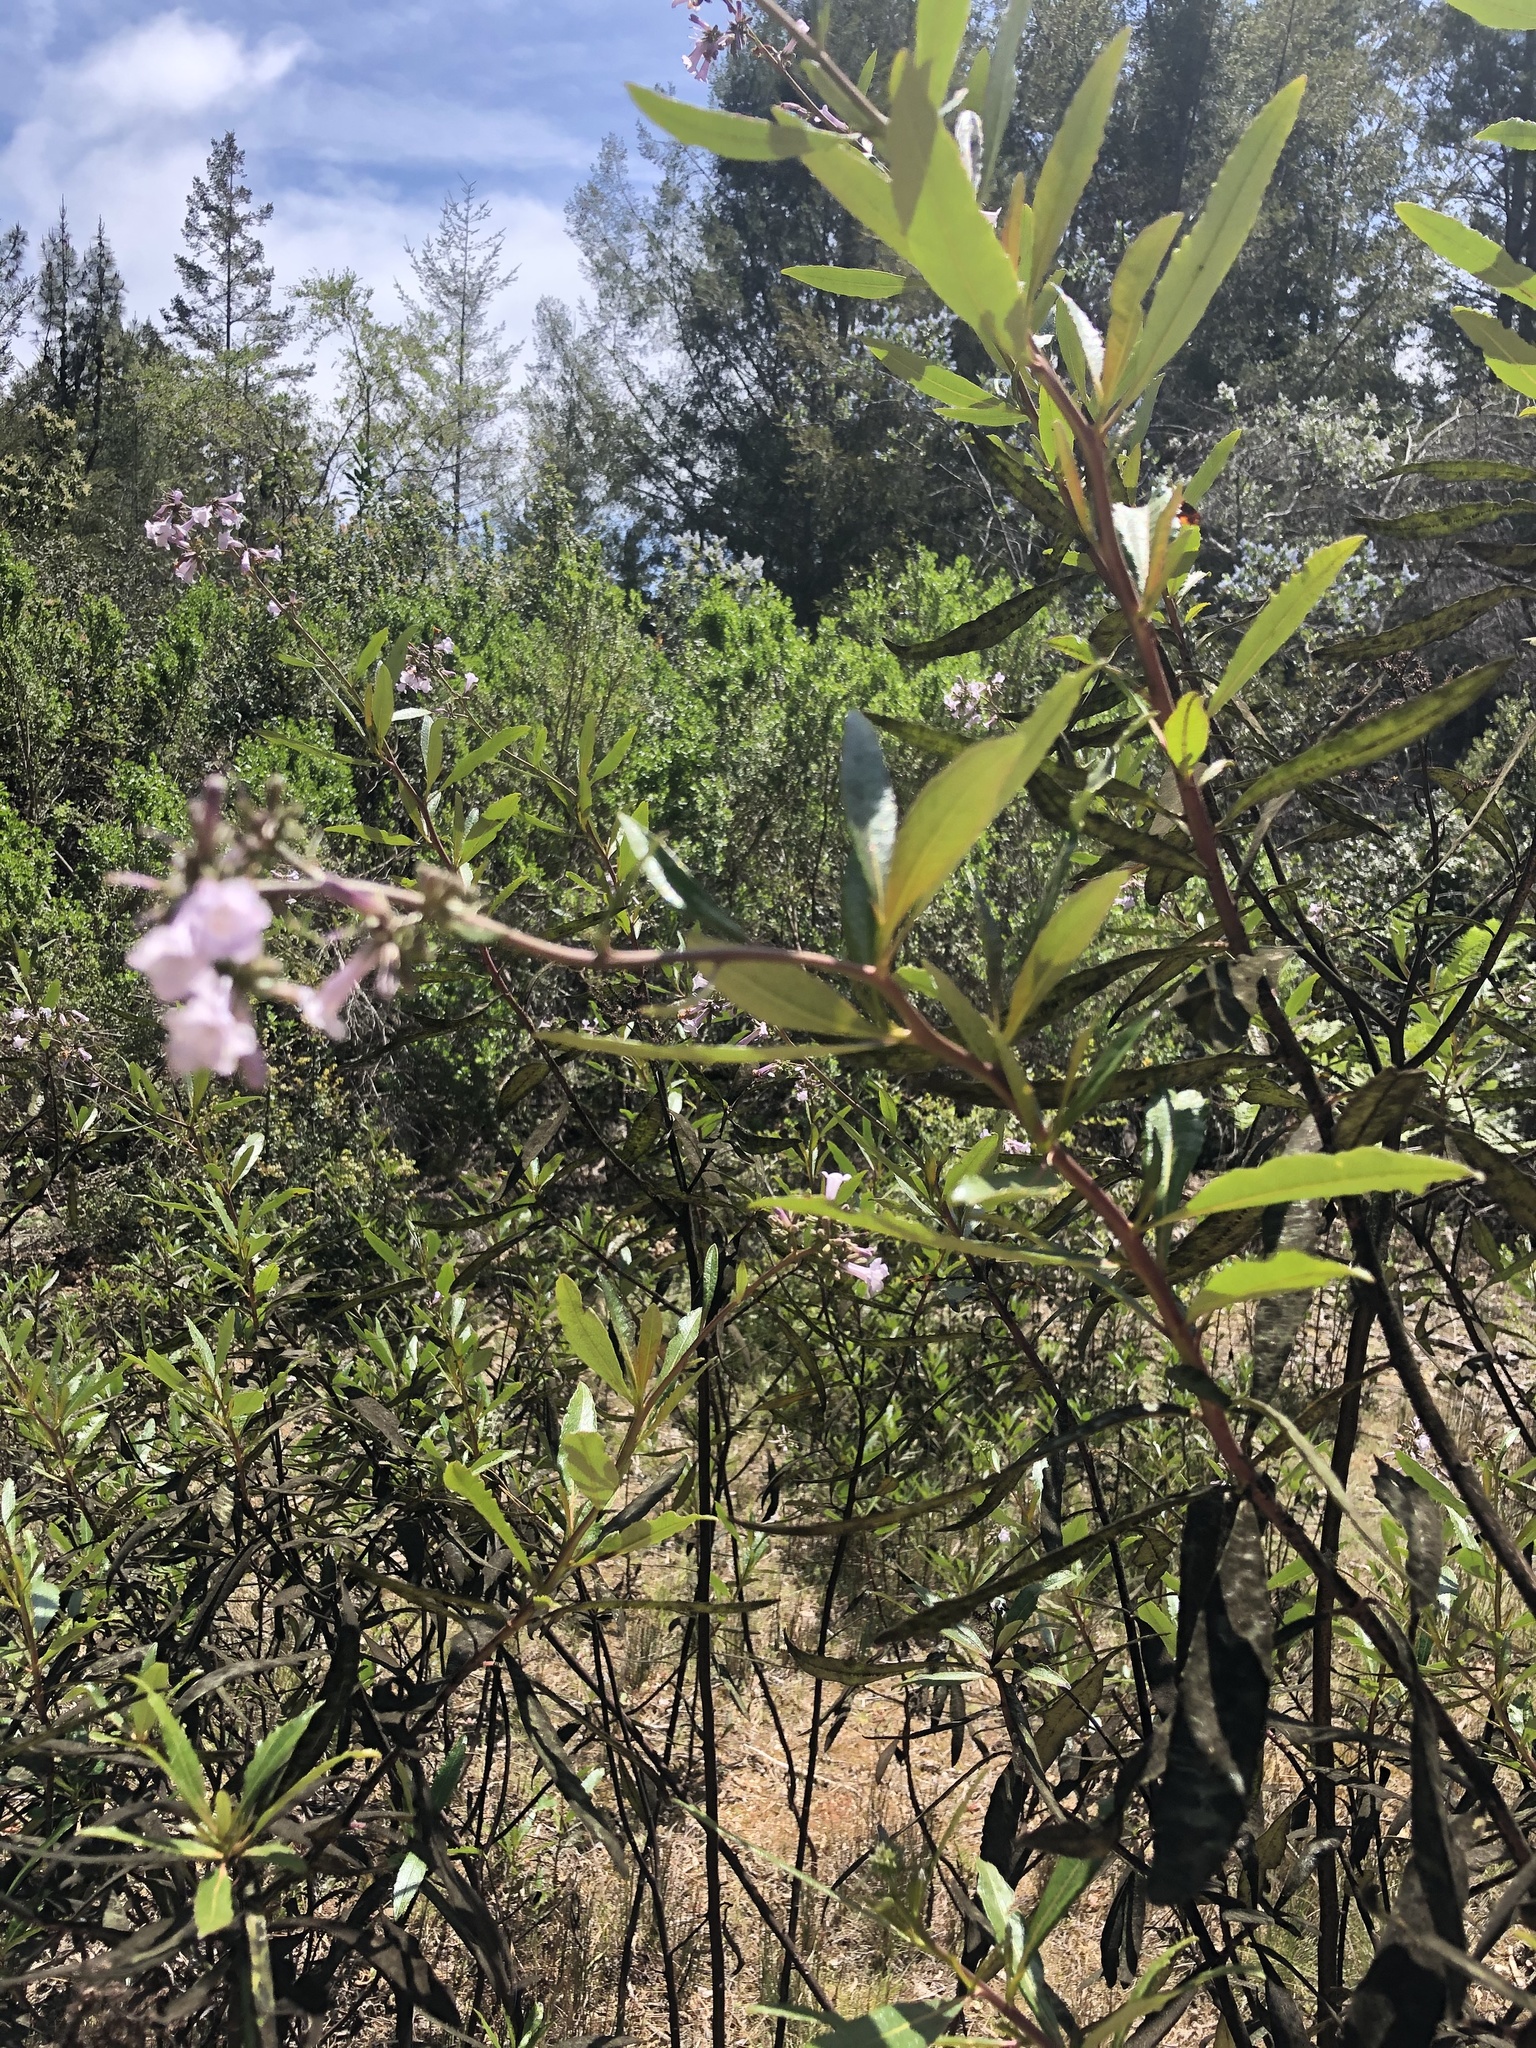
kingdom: Plantae
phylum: Tracheophyta
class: Magnoliopsida
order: Boraginales
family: Namaceae
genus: Eriodictyon
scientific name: Eriodictyon californicum
